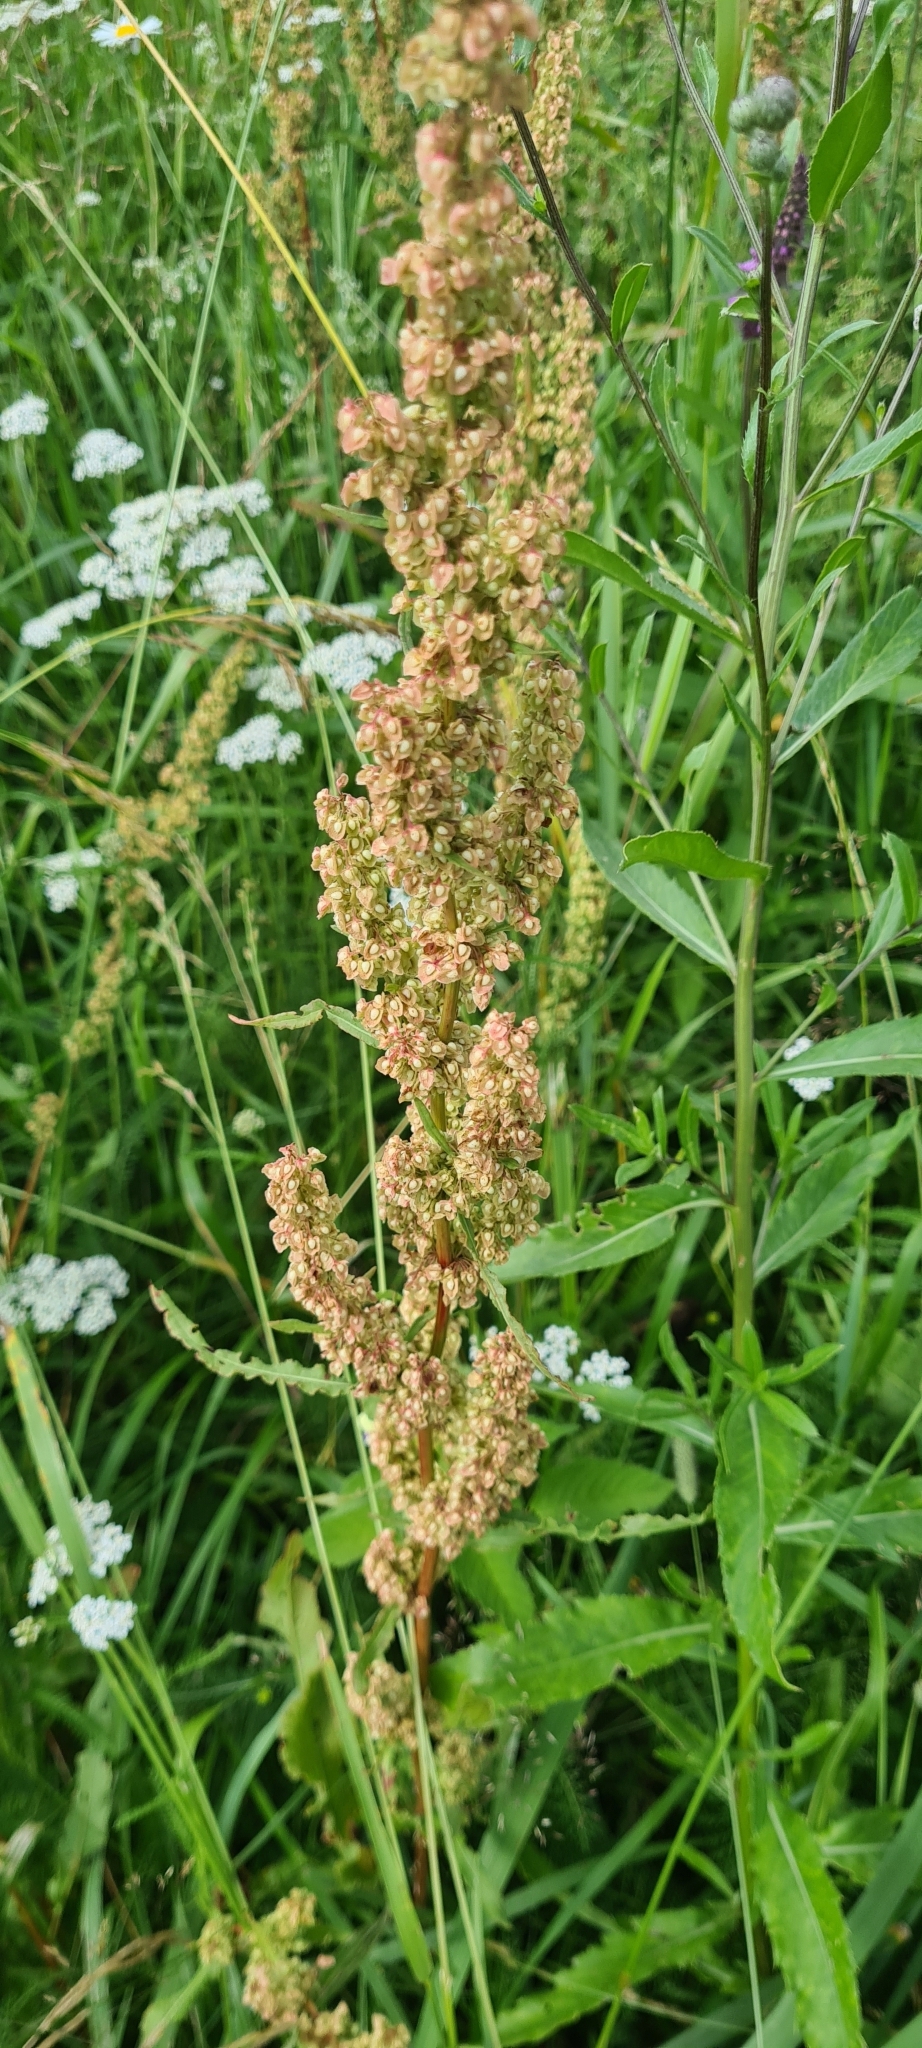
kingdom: Plantae
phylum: Tracheophyta
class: Magnoliopsida
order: Caryophyllales
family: Polygonaceae
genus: Rumex
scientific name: Rumex crispus
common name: Curled dock
